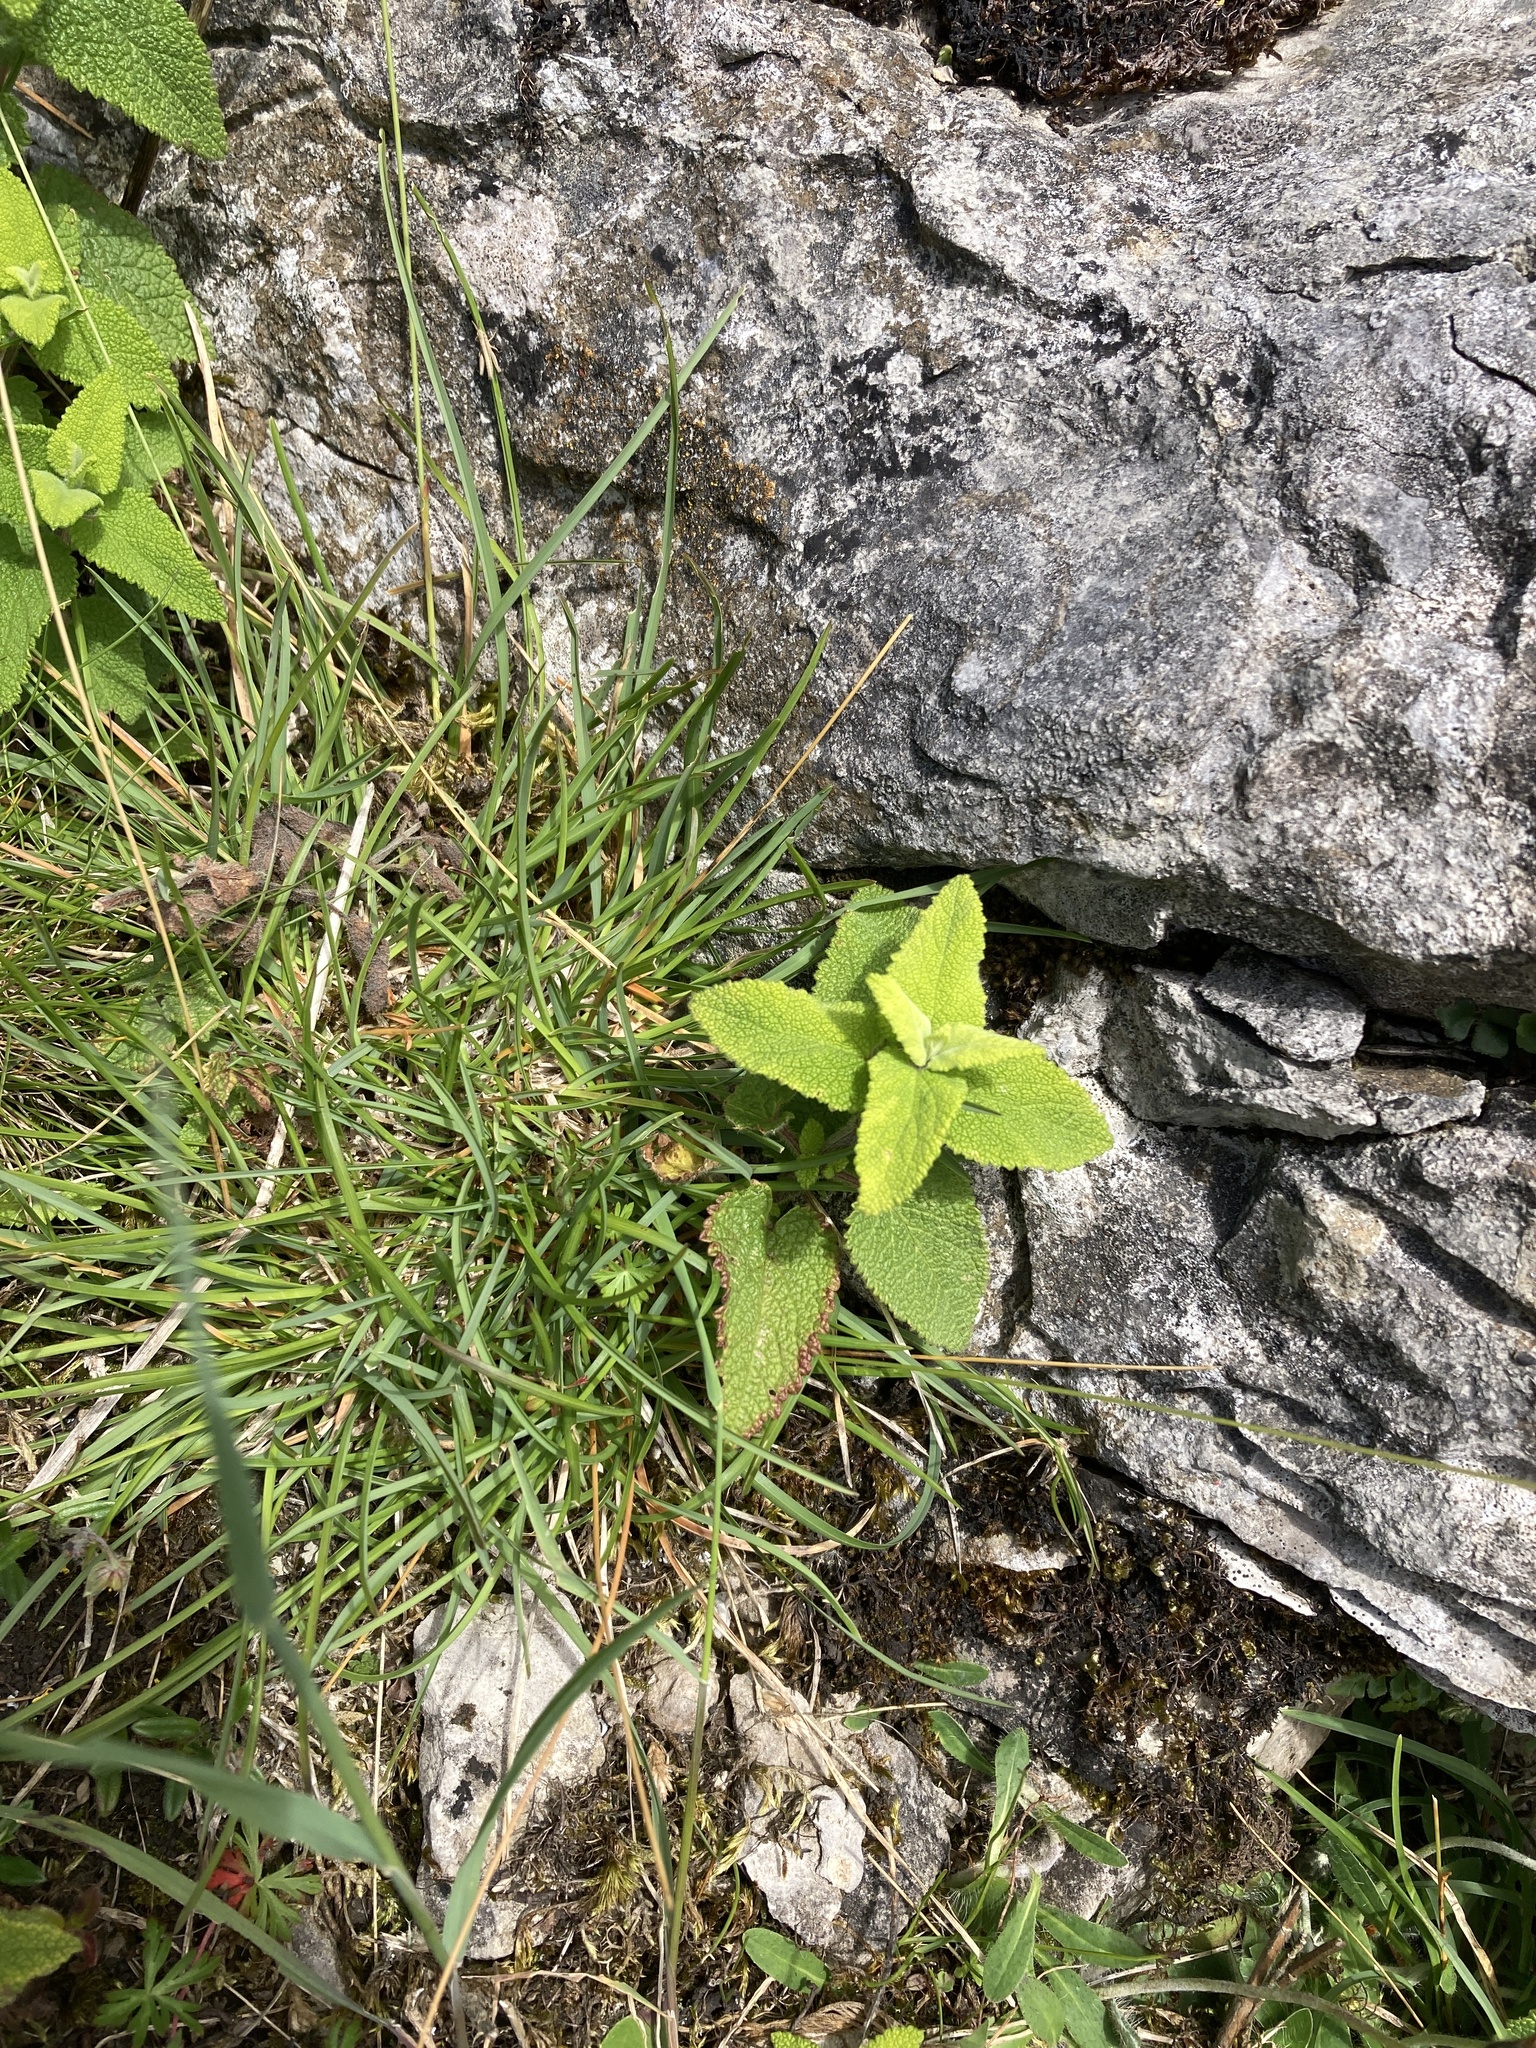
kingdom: Plantae
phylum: Tracheophyta
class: Magnoliopsida
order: Lamiales
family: Lamiaceae
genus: Teucrium
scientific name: Teucrium scorodonia
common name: Woodland germander
